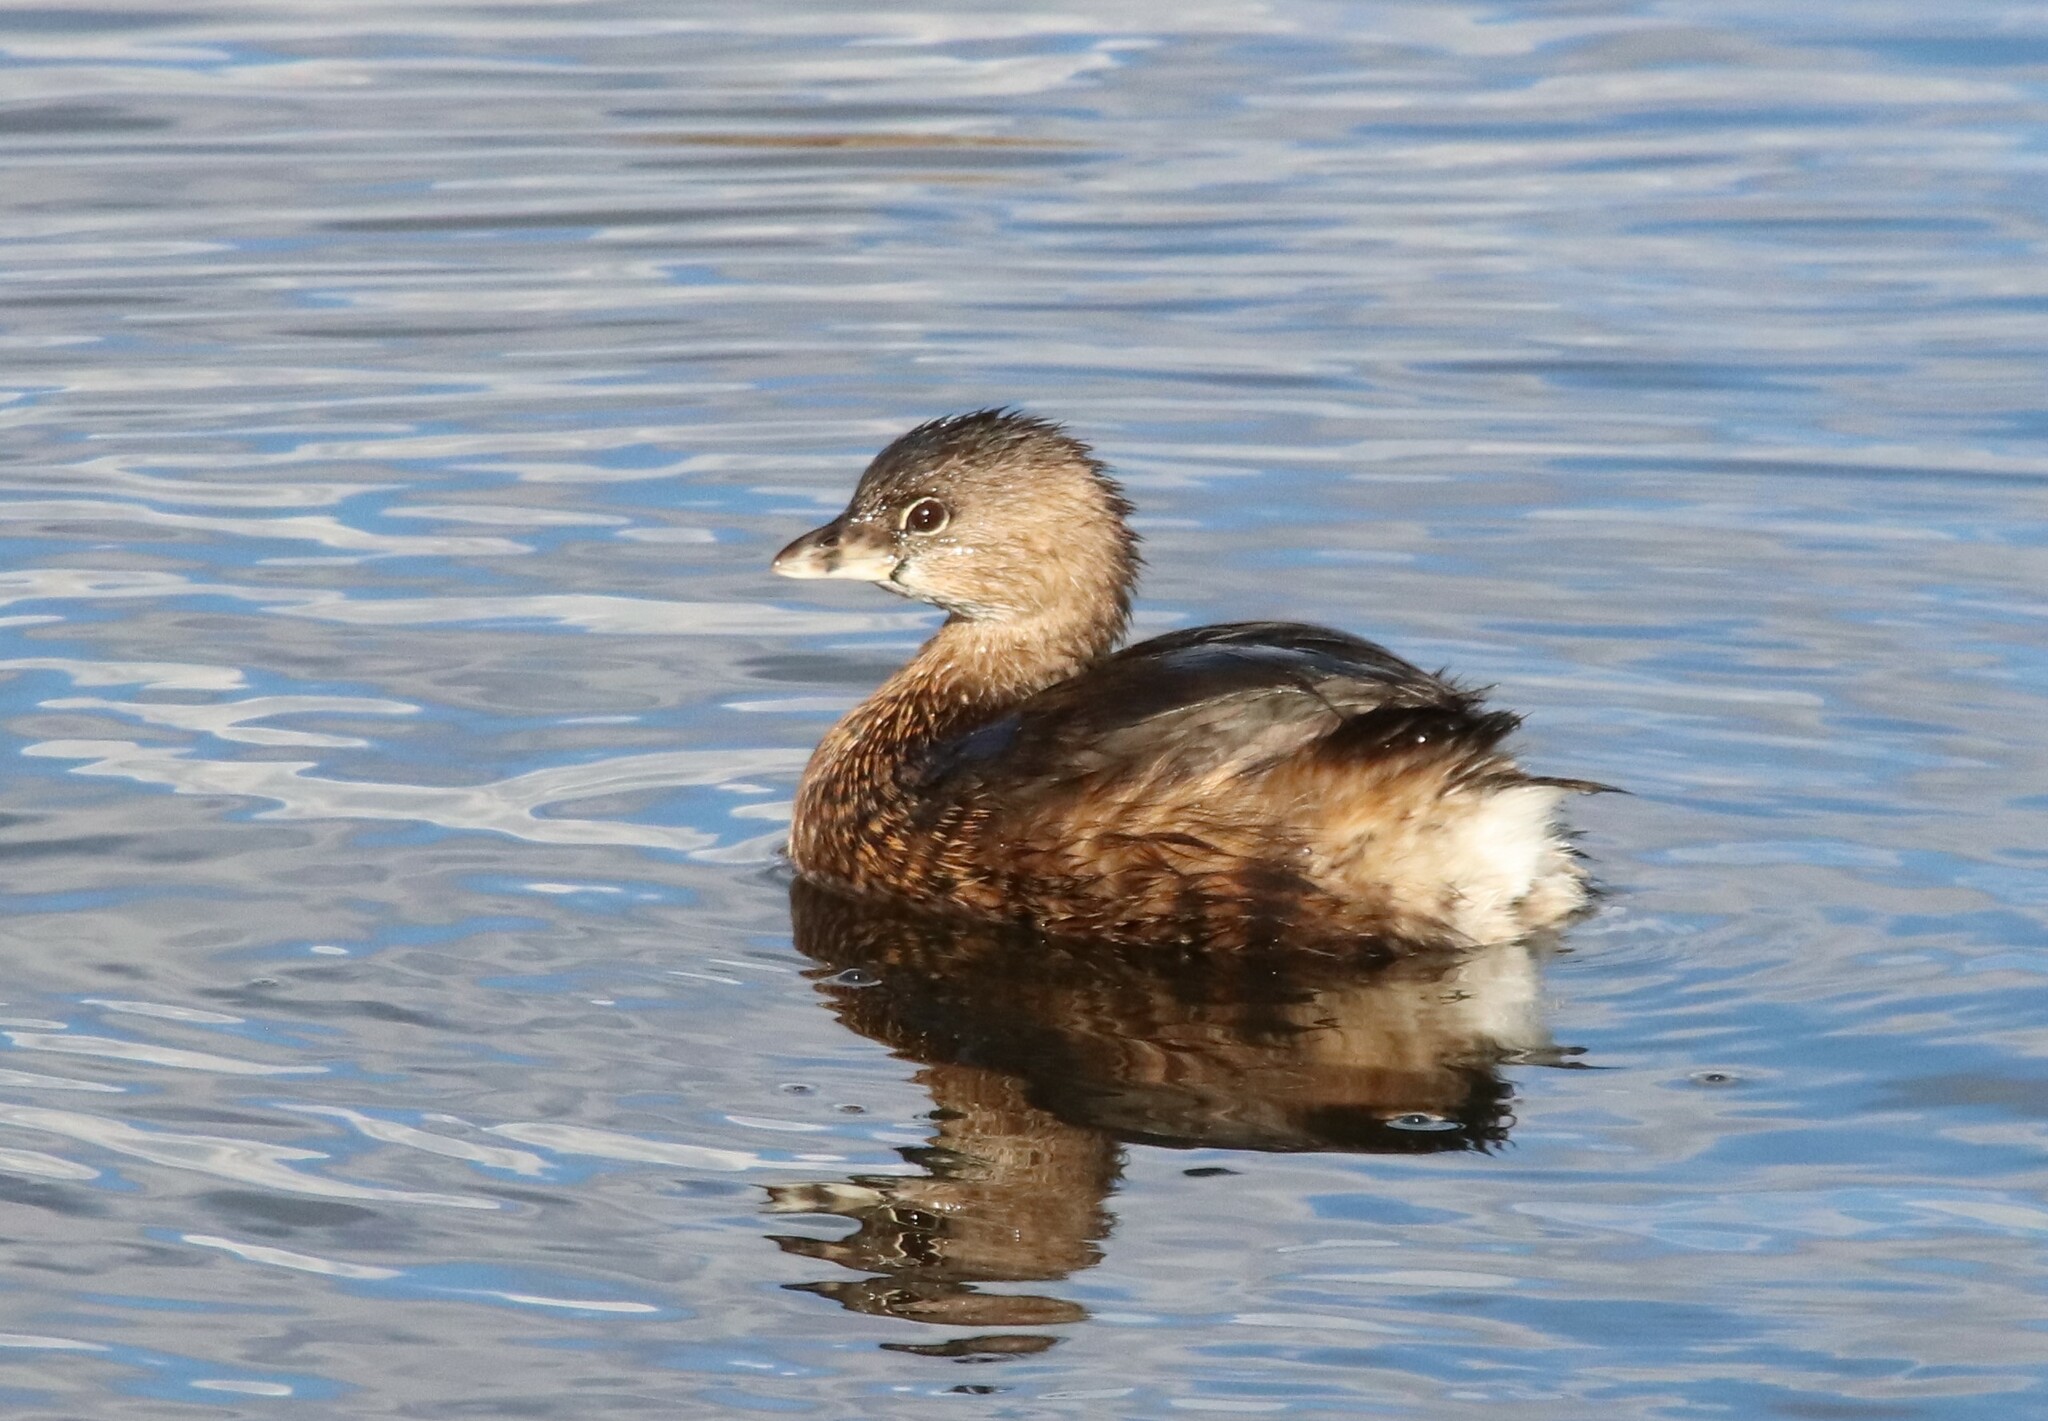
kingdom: Animalia
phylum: Chordata
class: Aves
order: Podicipediformes
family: Podicipedidae
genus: Podilymbus
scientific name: Podilymbus podiceps
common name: Pied-billed grebe
